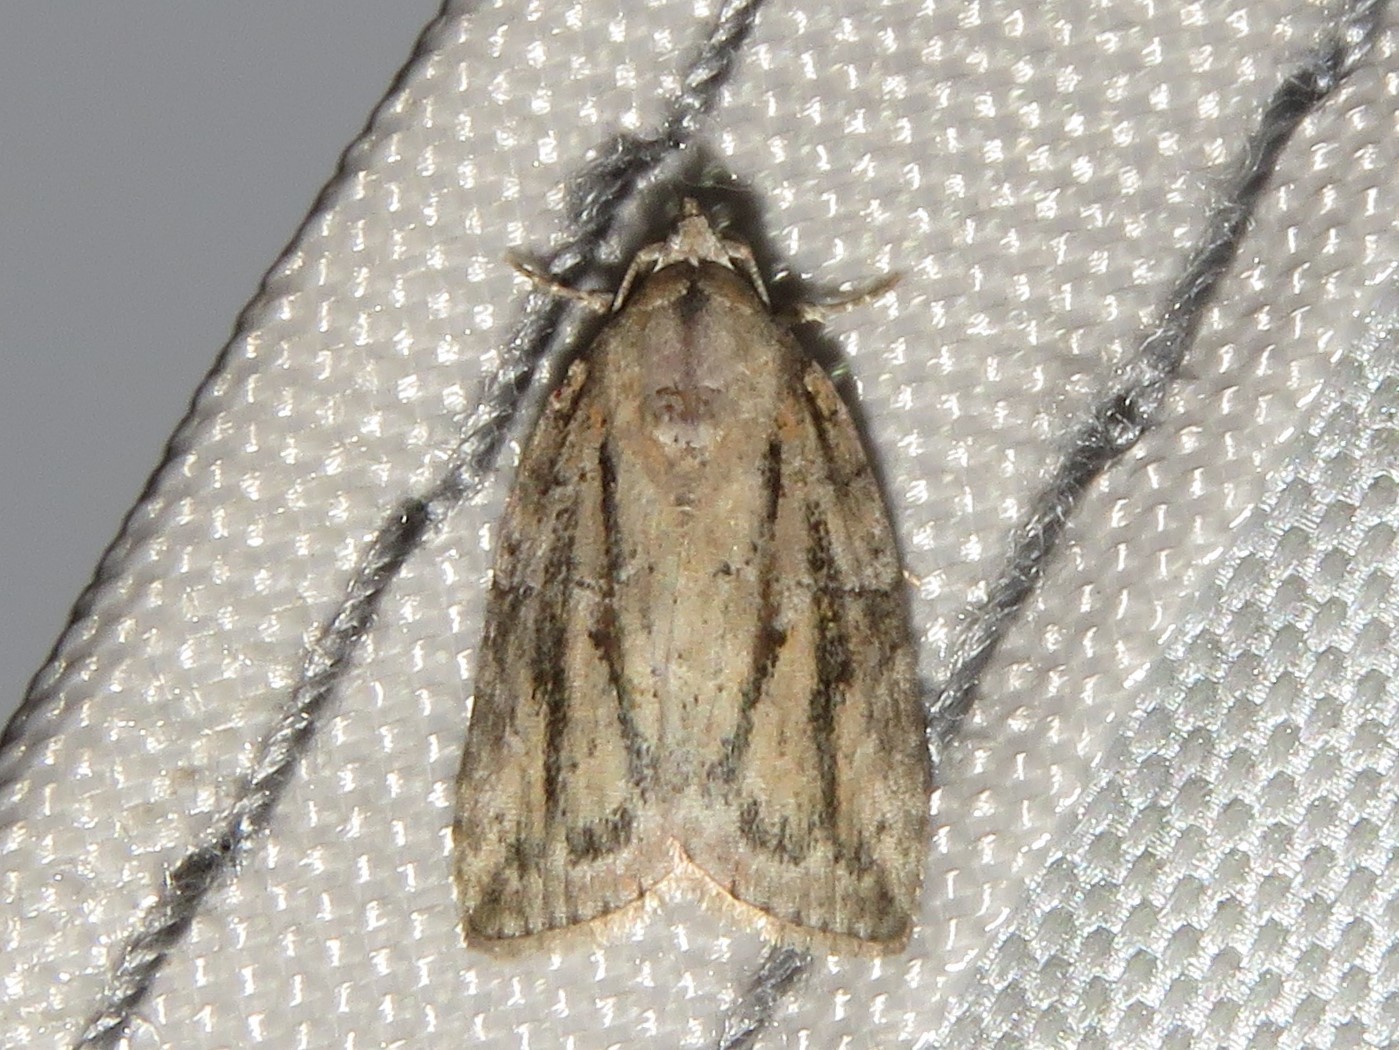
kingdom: Animalia
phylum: Arthropoda
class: Insecta
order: Lepidoptera
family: Nolidae
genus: Garella
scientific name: Garella nilotica
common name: Black-olive caterpillar moth
